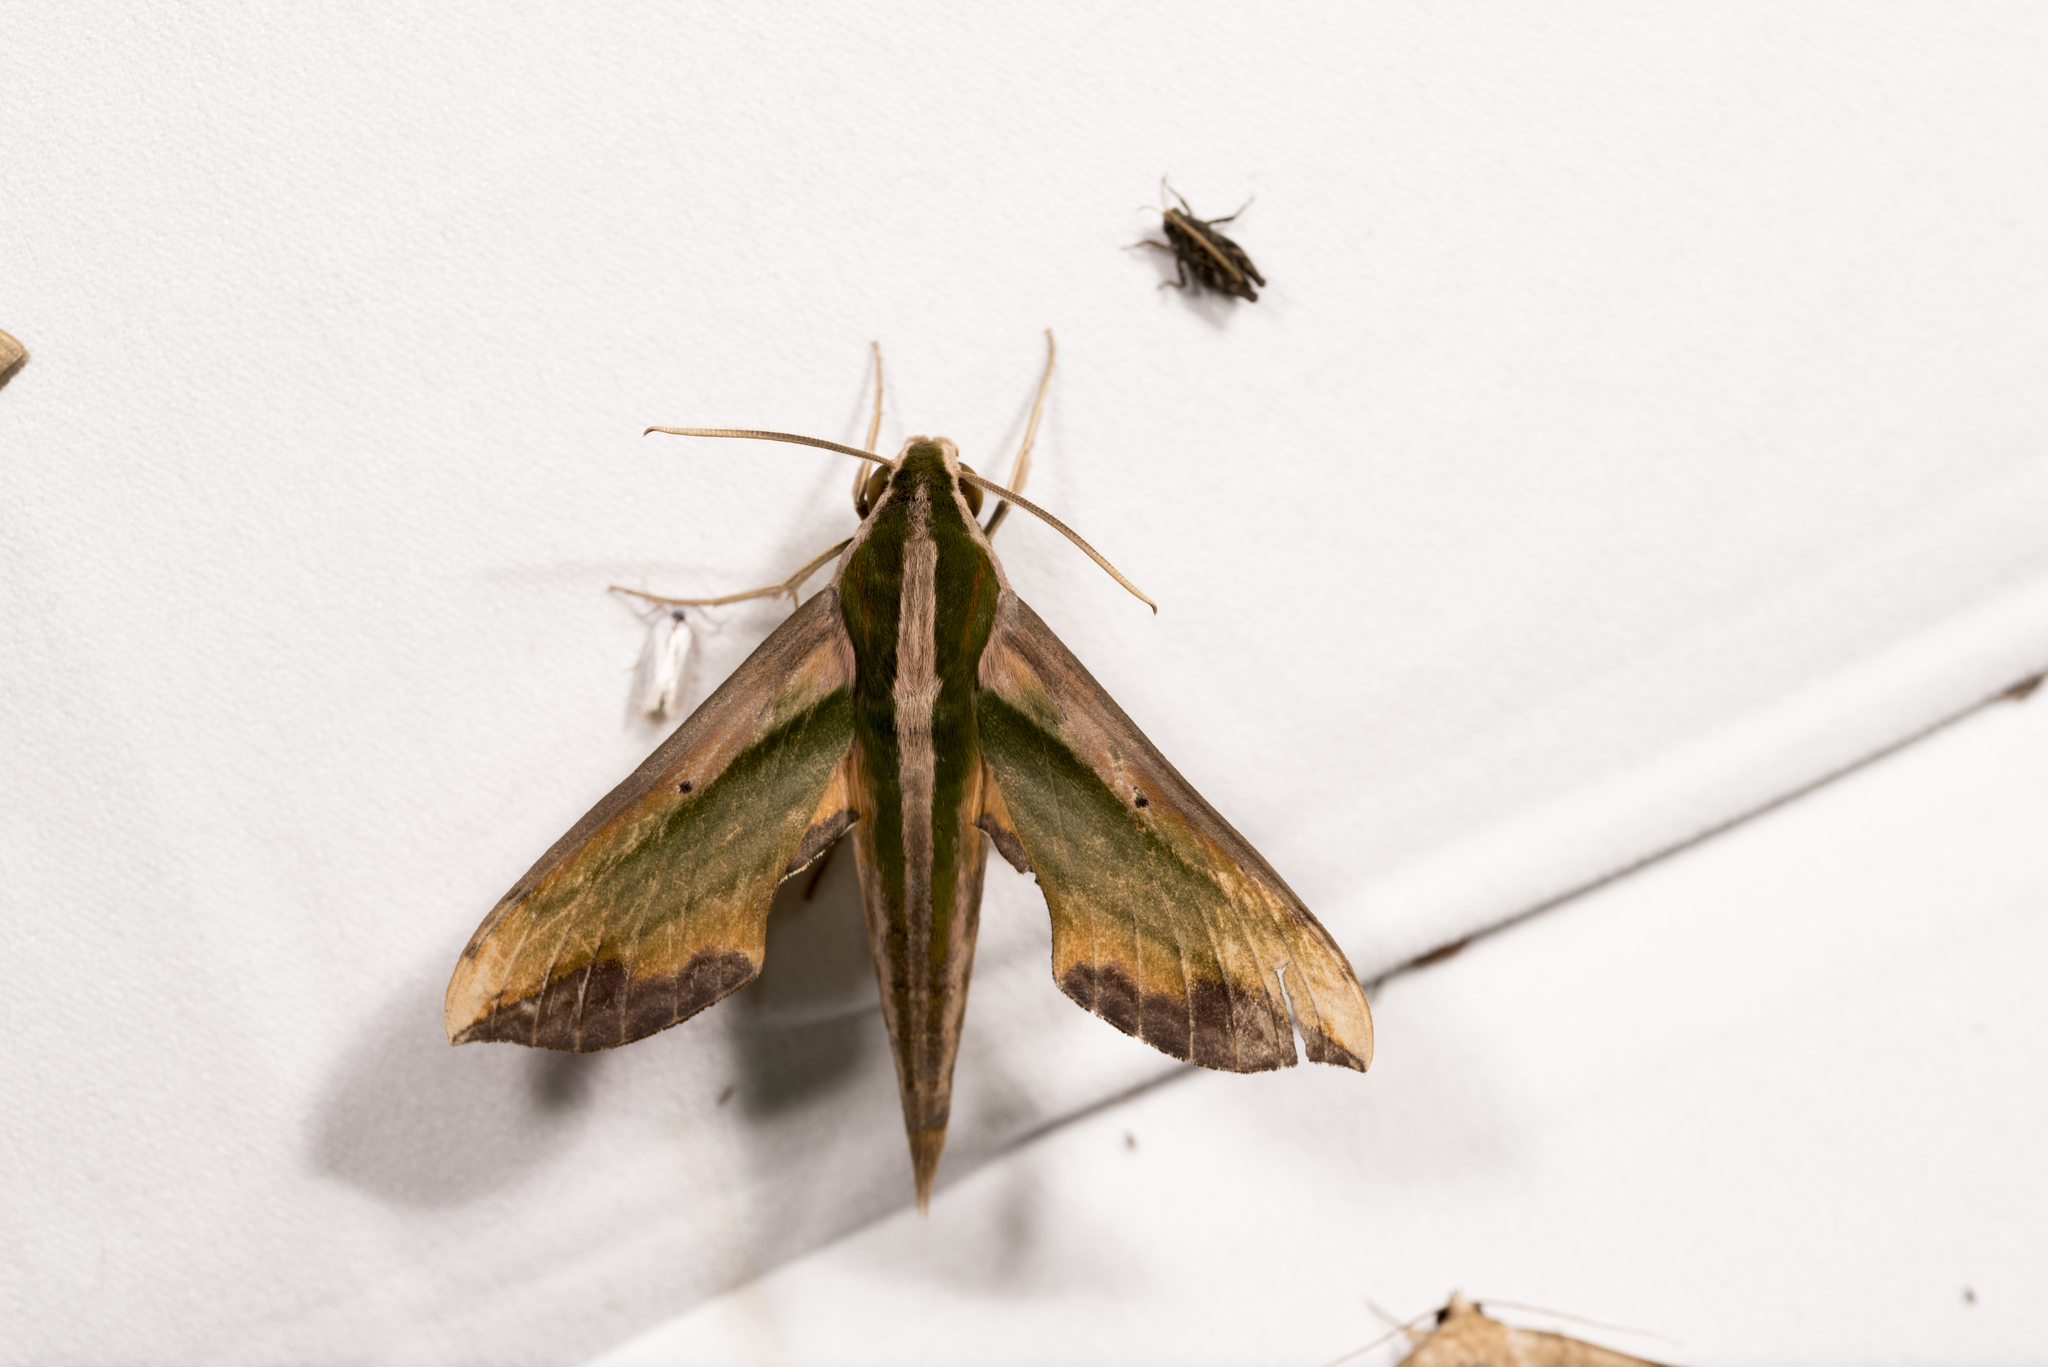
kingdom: Animalia
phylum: Arthropoda
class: Insecta
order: Lepidoptera
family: Sphingidae
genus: Pergesa
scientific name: Pergesa acteus
